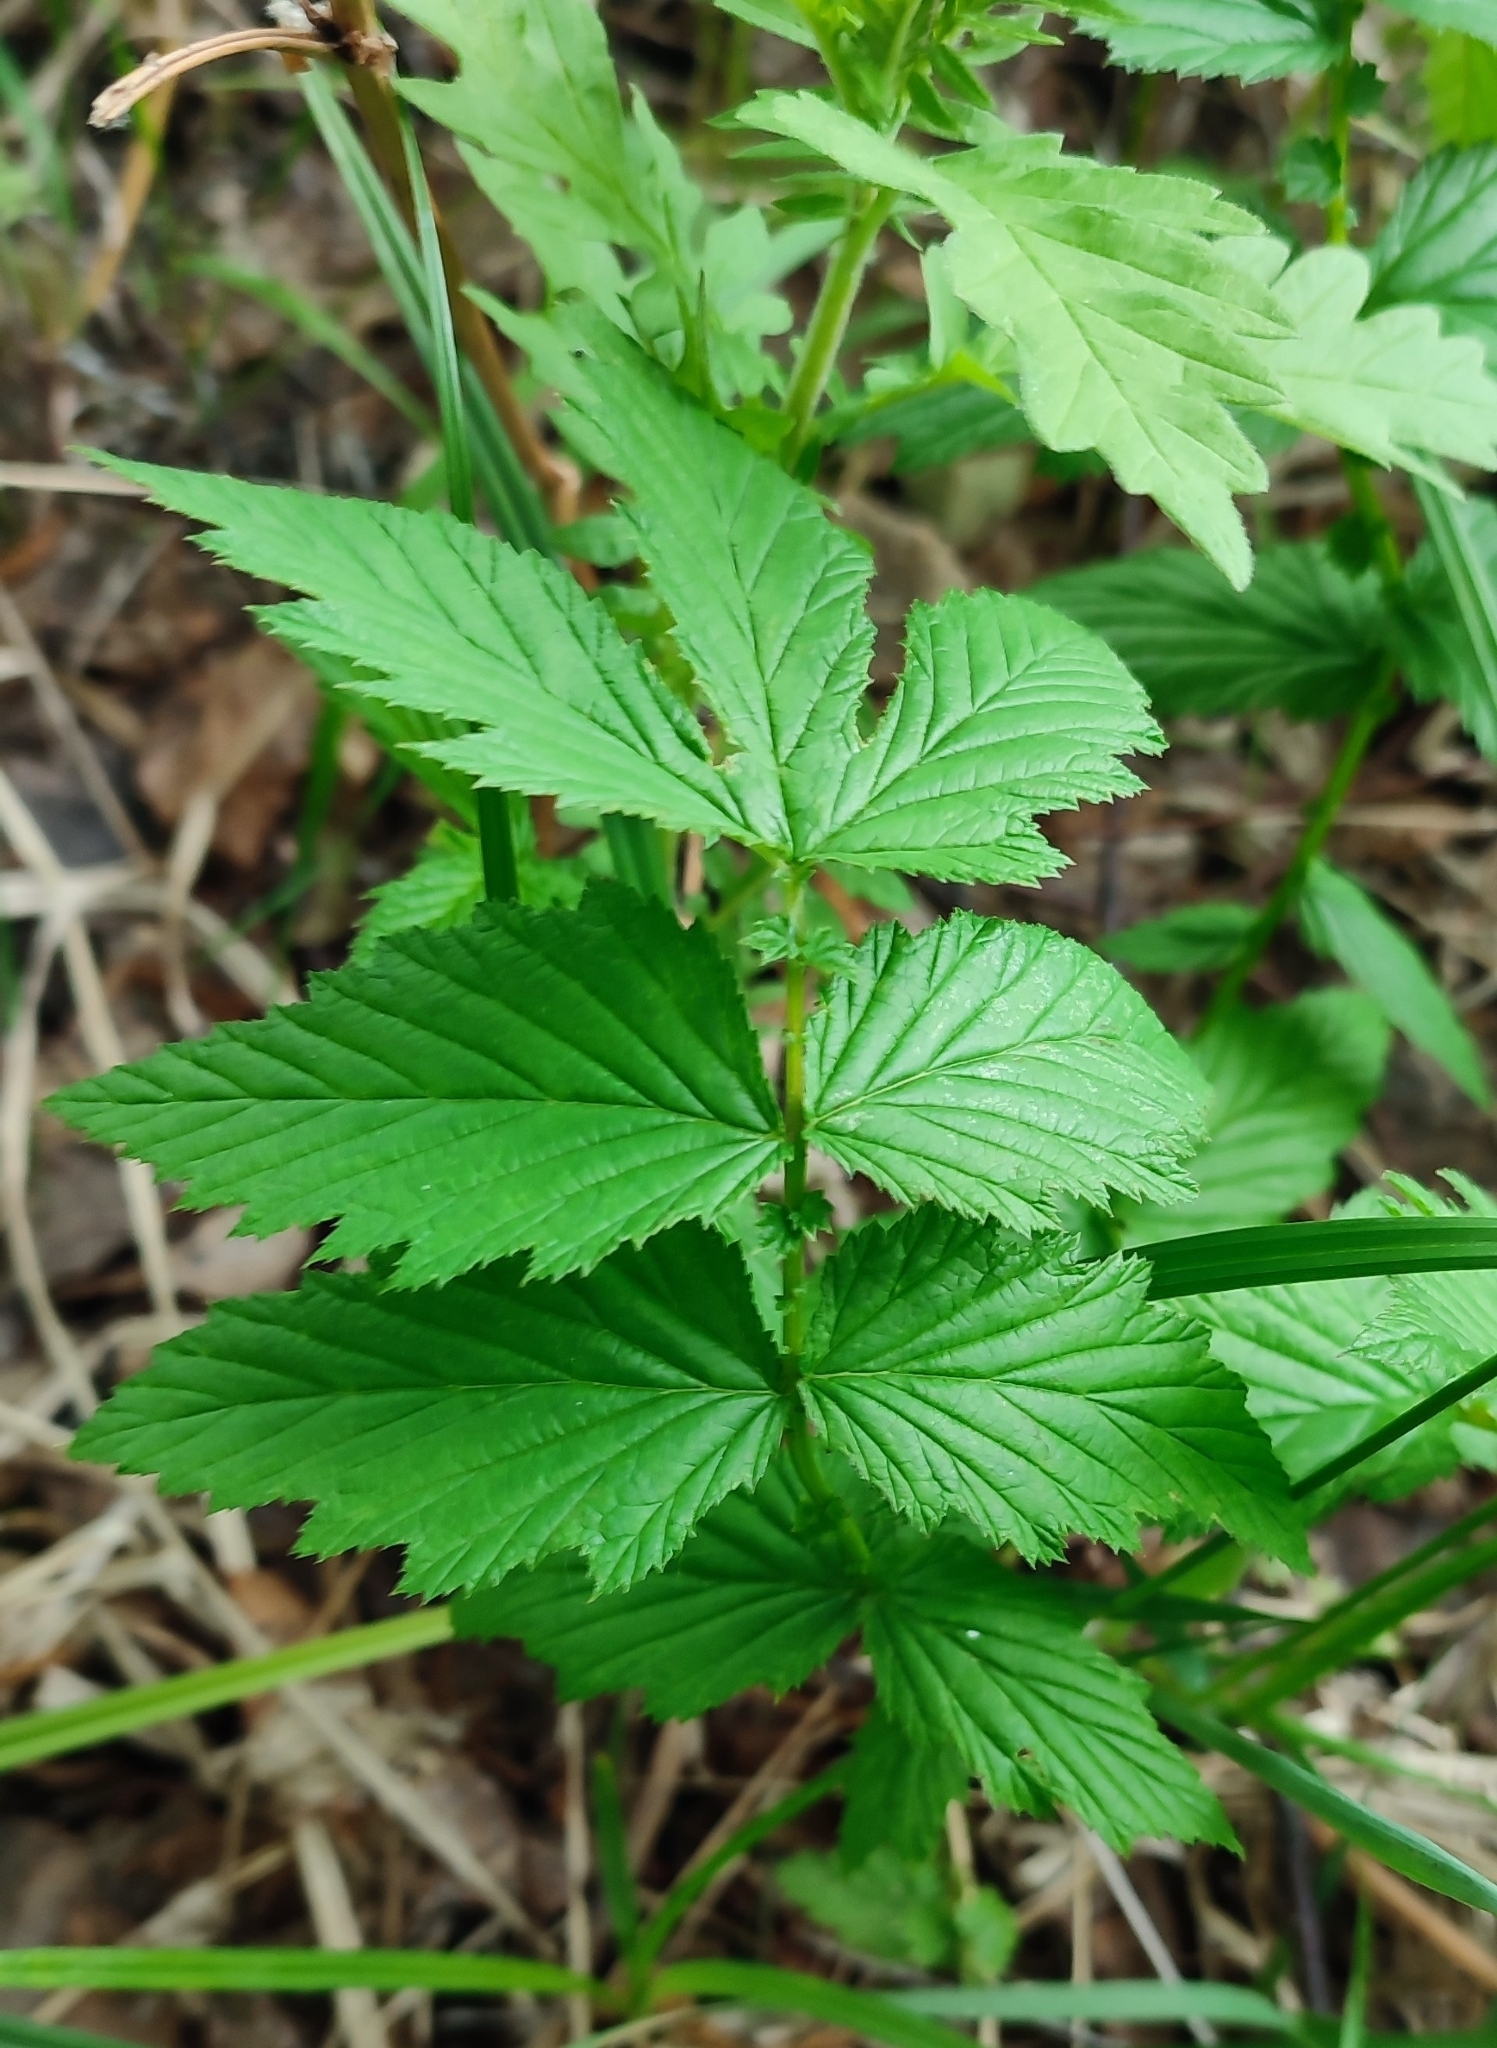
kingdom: Plantae
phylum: Tracheophyta
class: Magnoliopsida
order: Rosales
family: Rosaceae
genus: Filipendula
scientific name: Filipendula ulmaria
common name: Meadowsweet
